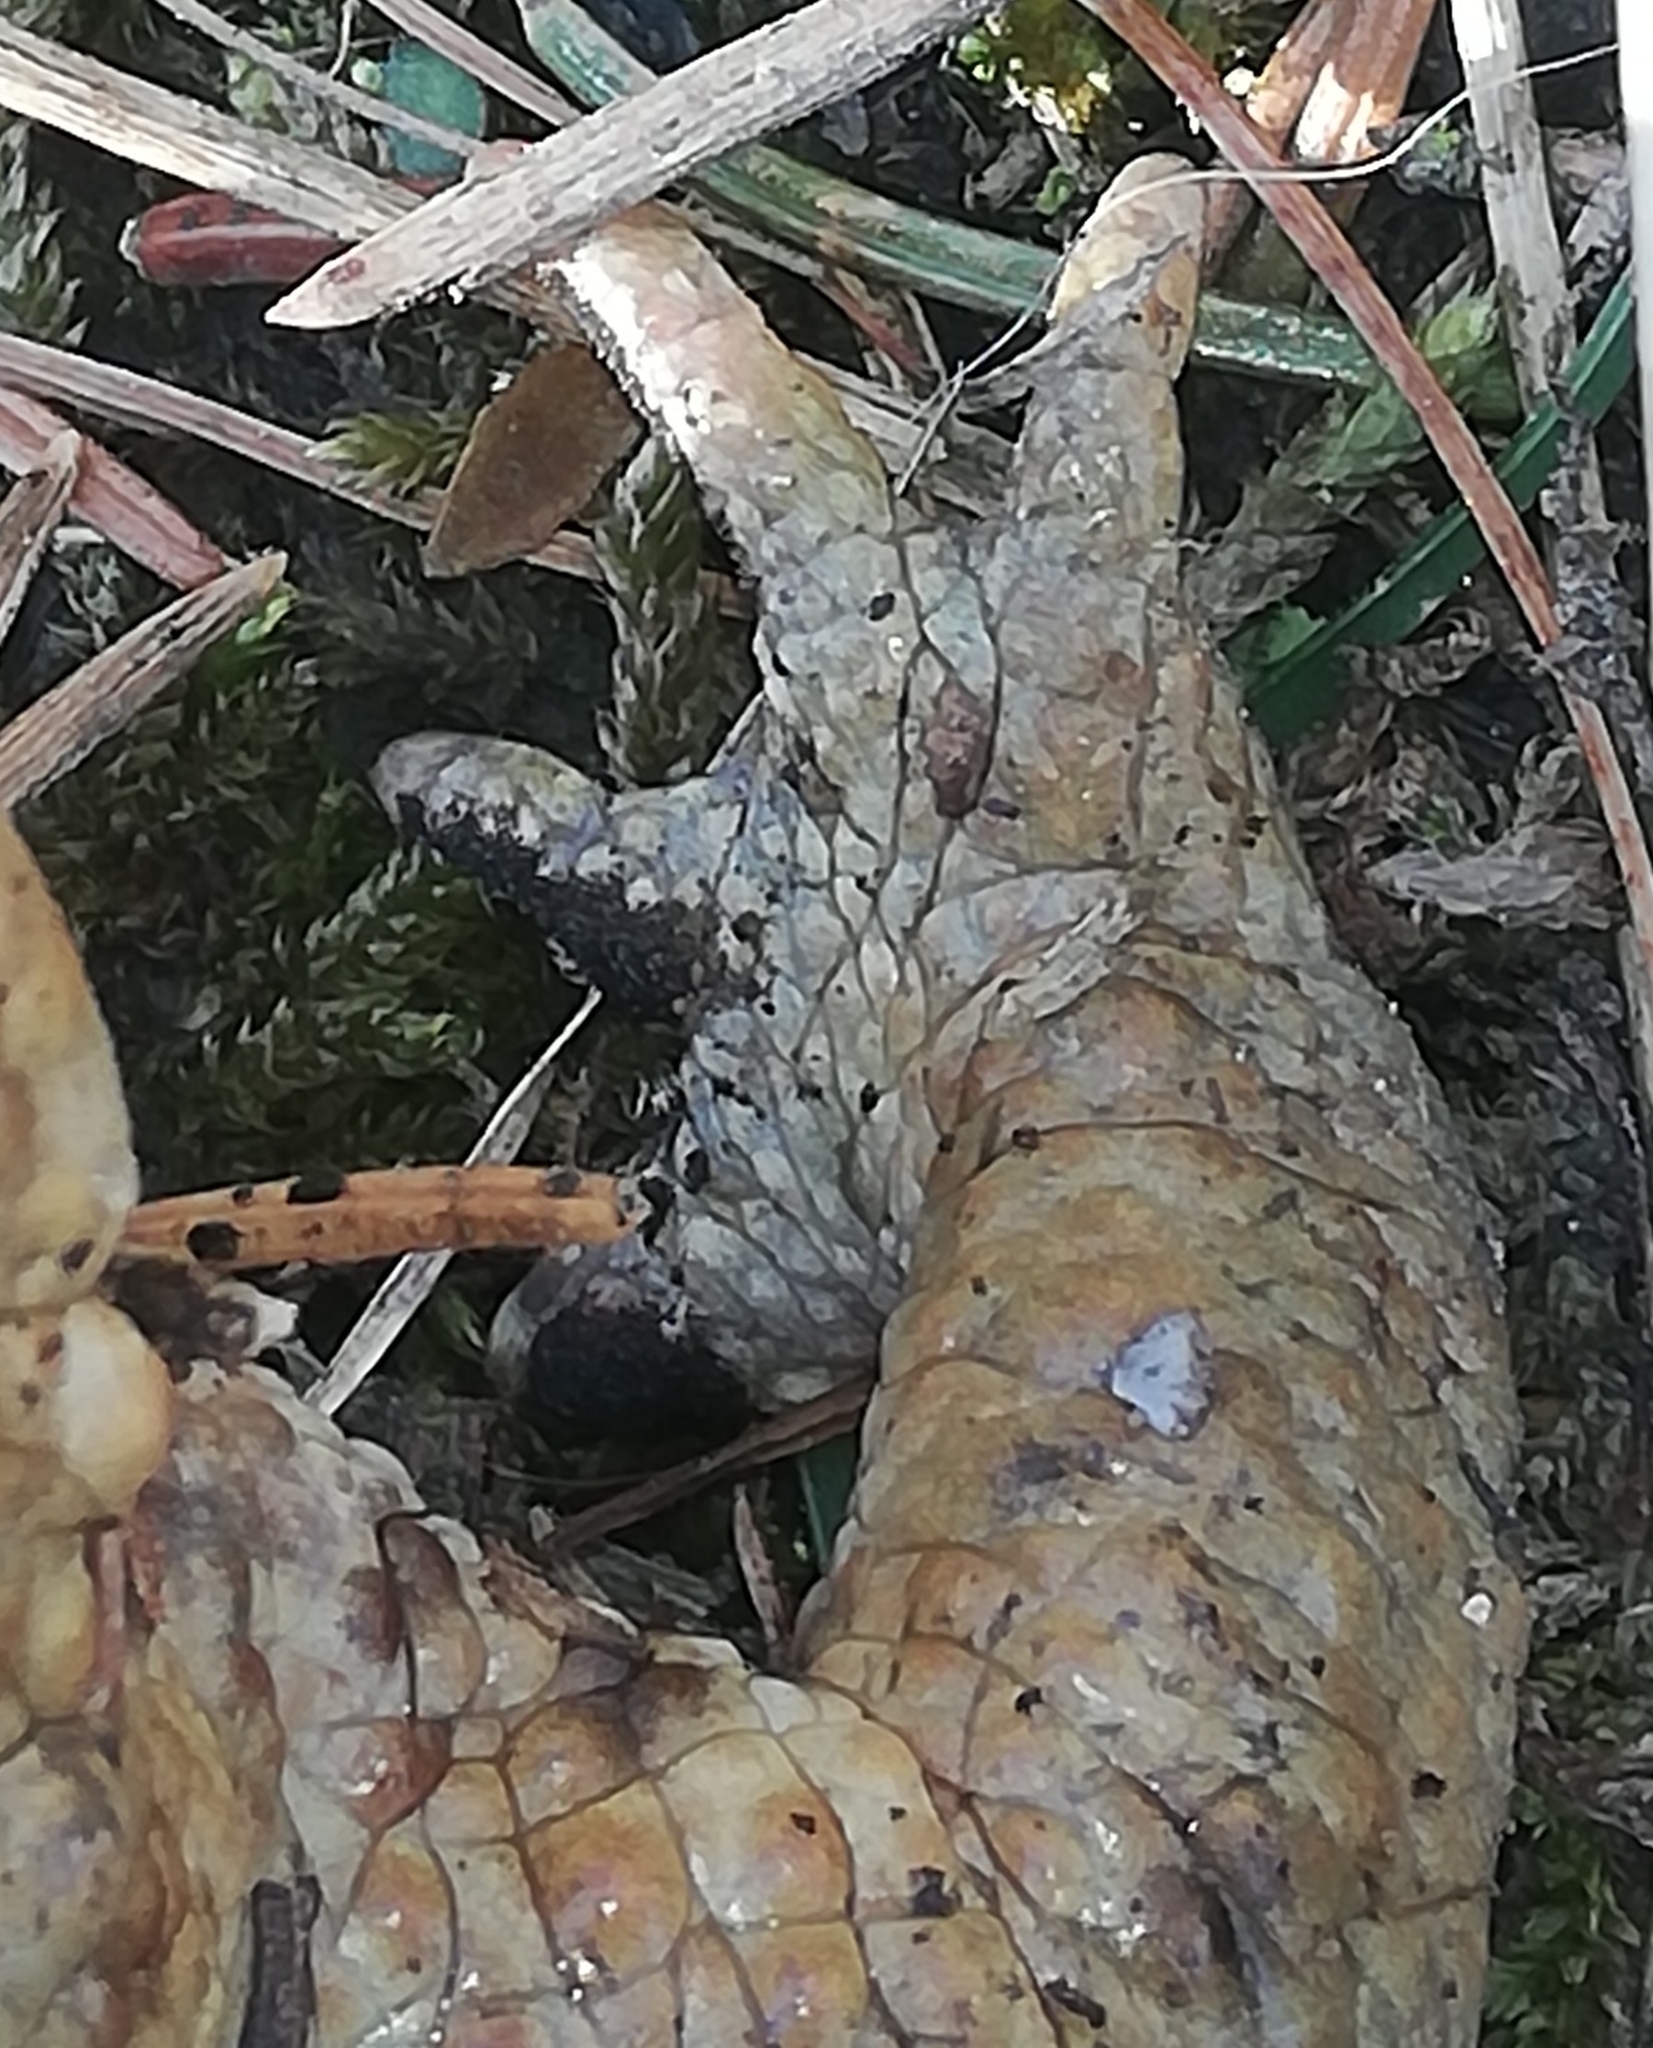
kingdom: Animalia
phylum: Chordata
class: Amphibia
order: Anura
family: Bufonidae
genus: Bufo
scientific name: Bufo bufo
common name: Common toad
